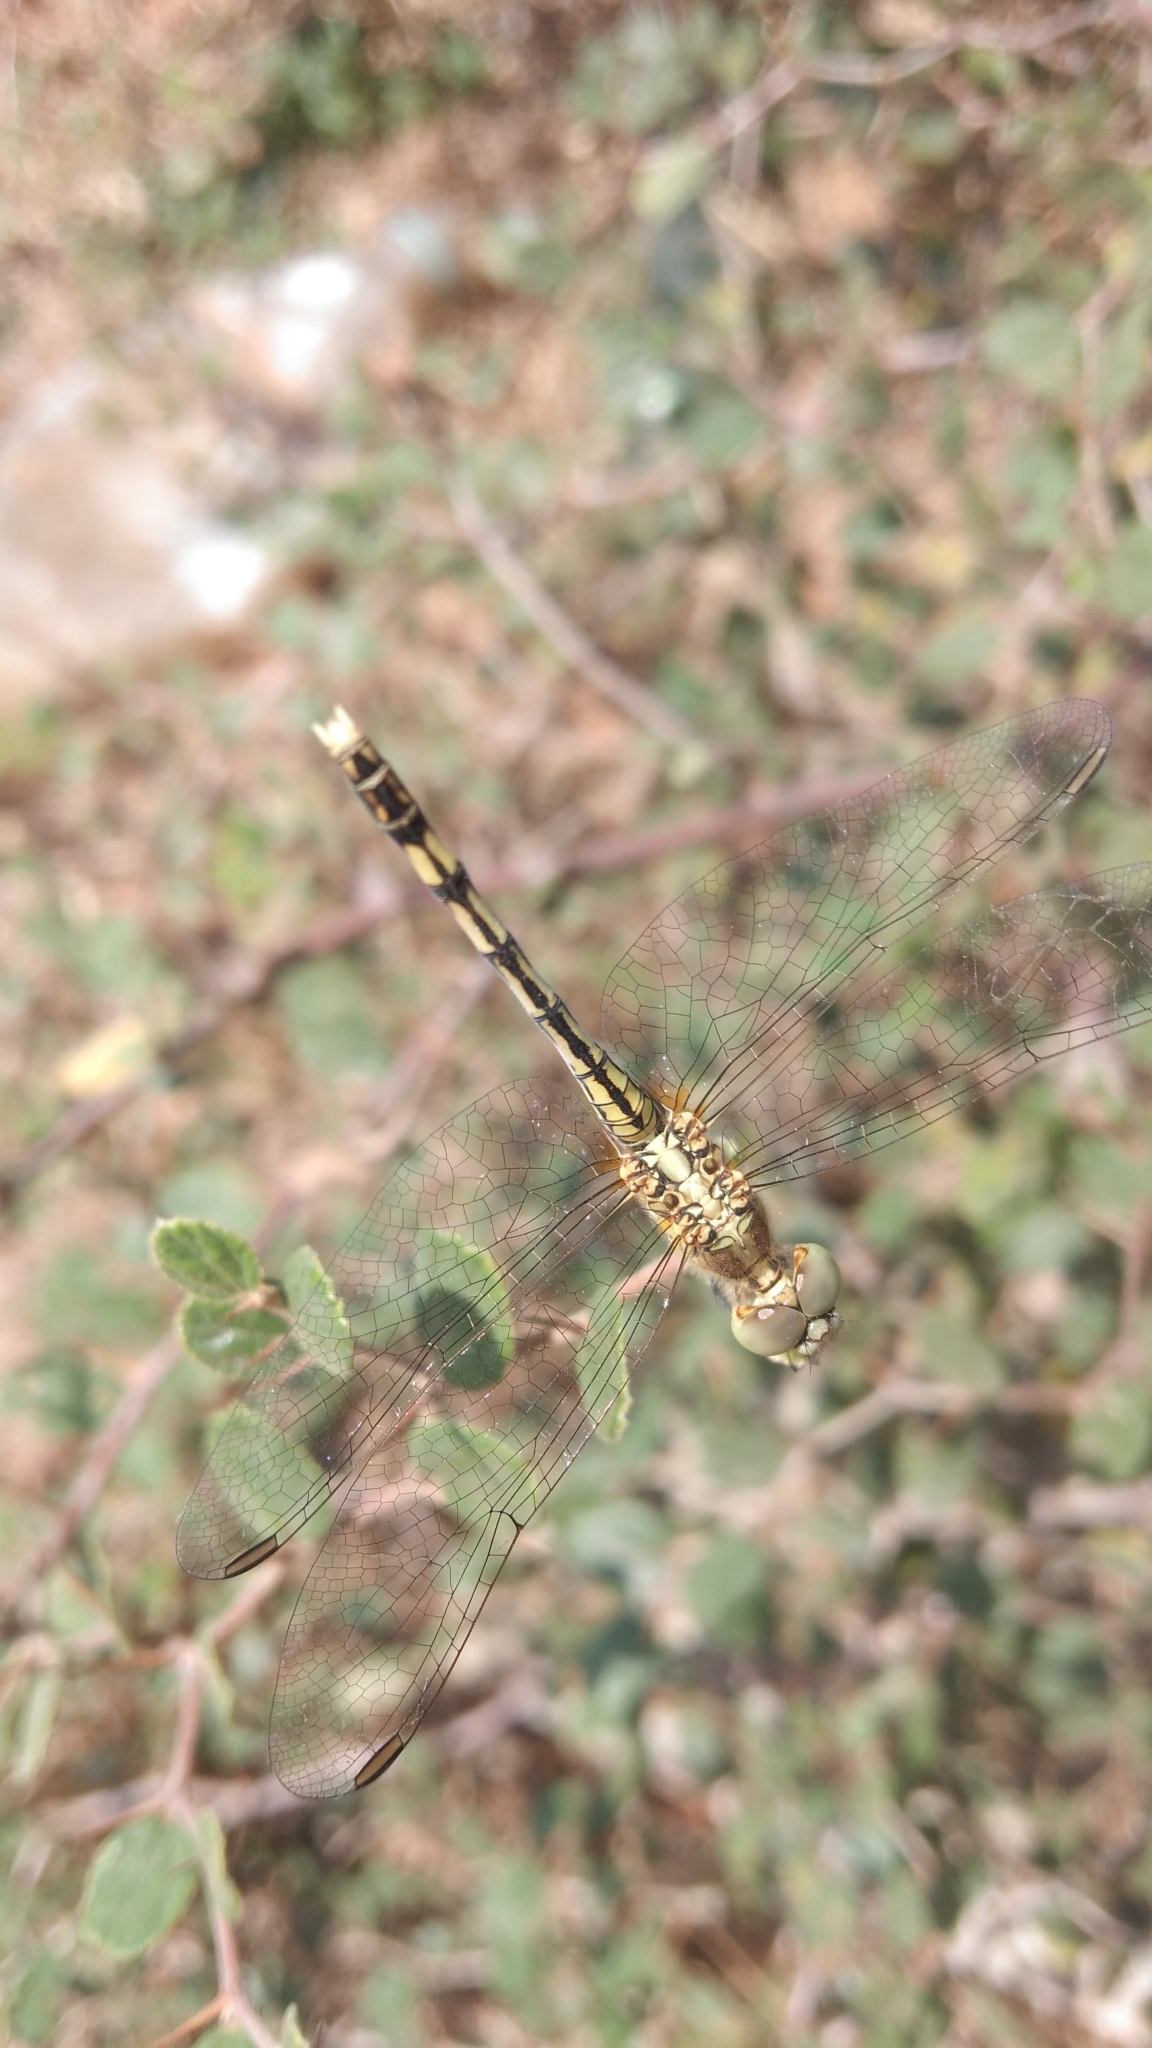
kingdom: Animalia
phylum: Arthropoda
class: Insecta
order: Odonata
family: Libellulidae
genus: Diplacodes
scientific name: Diplacodes trivialis
